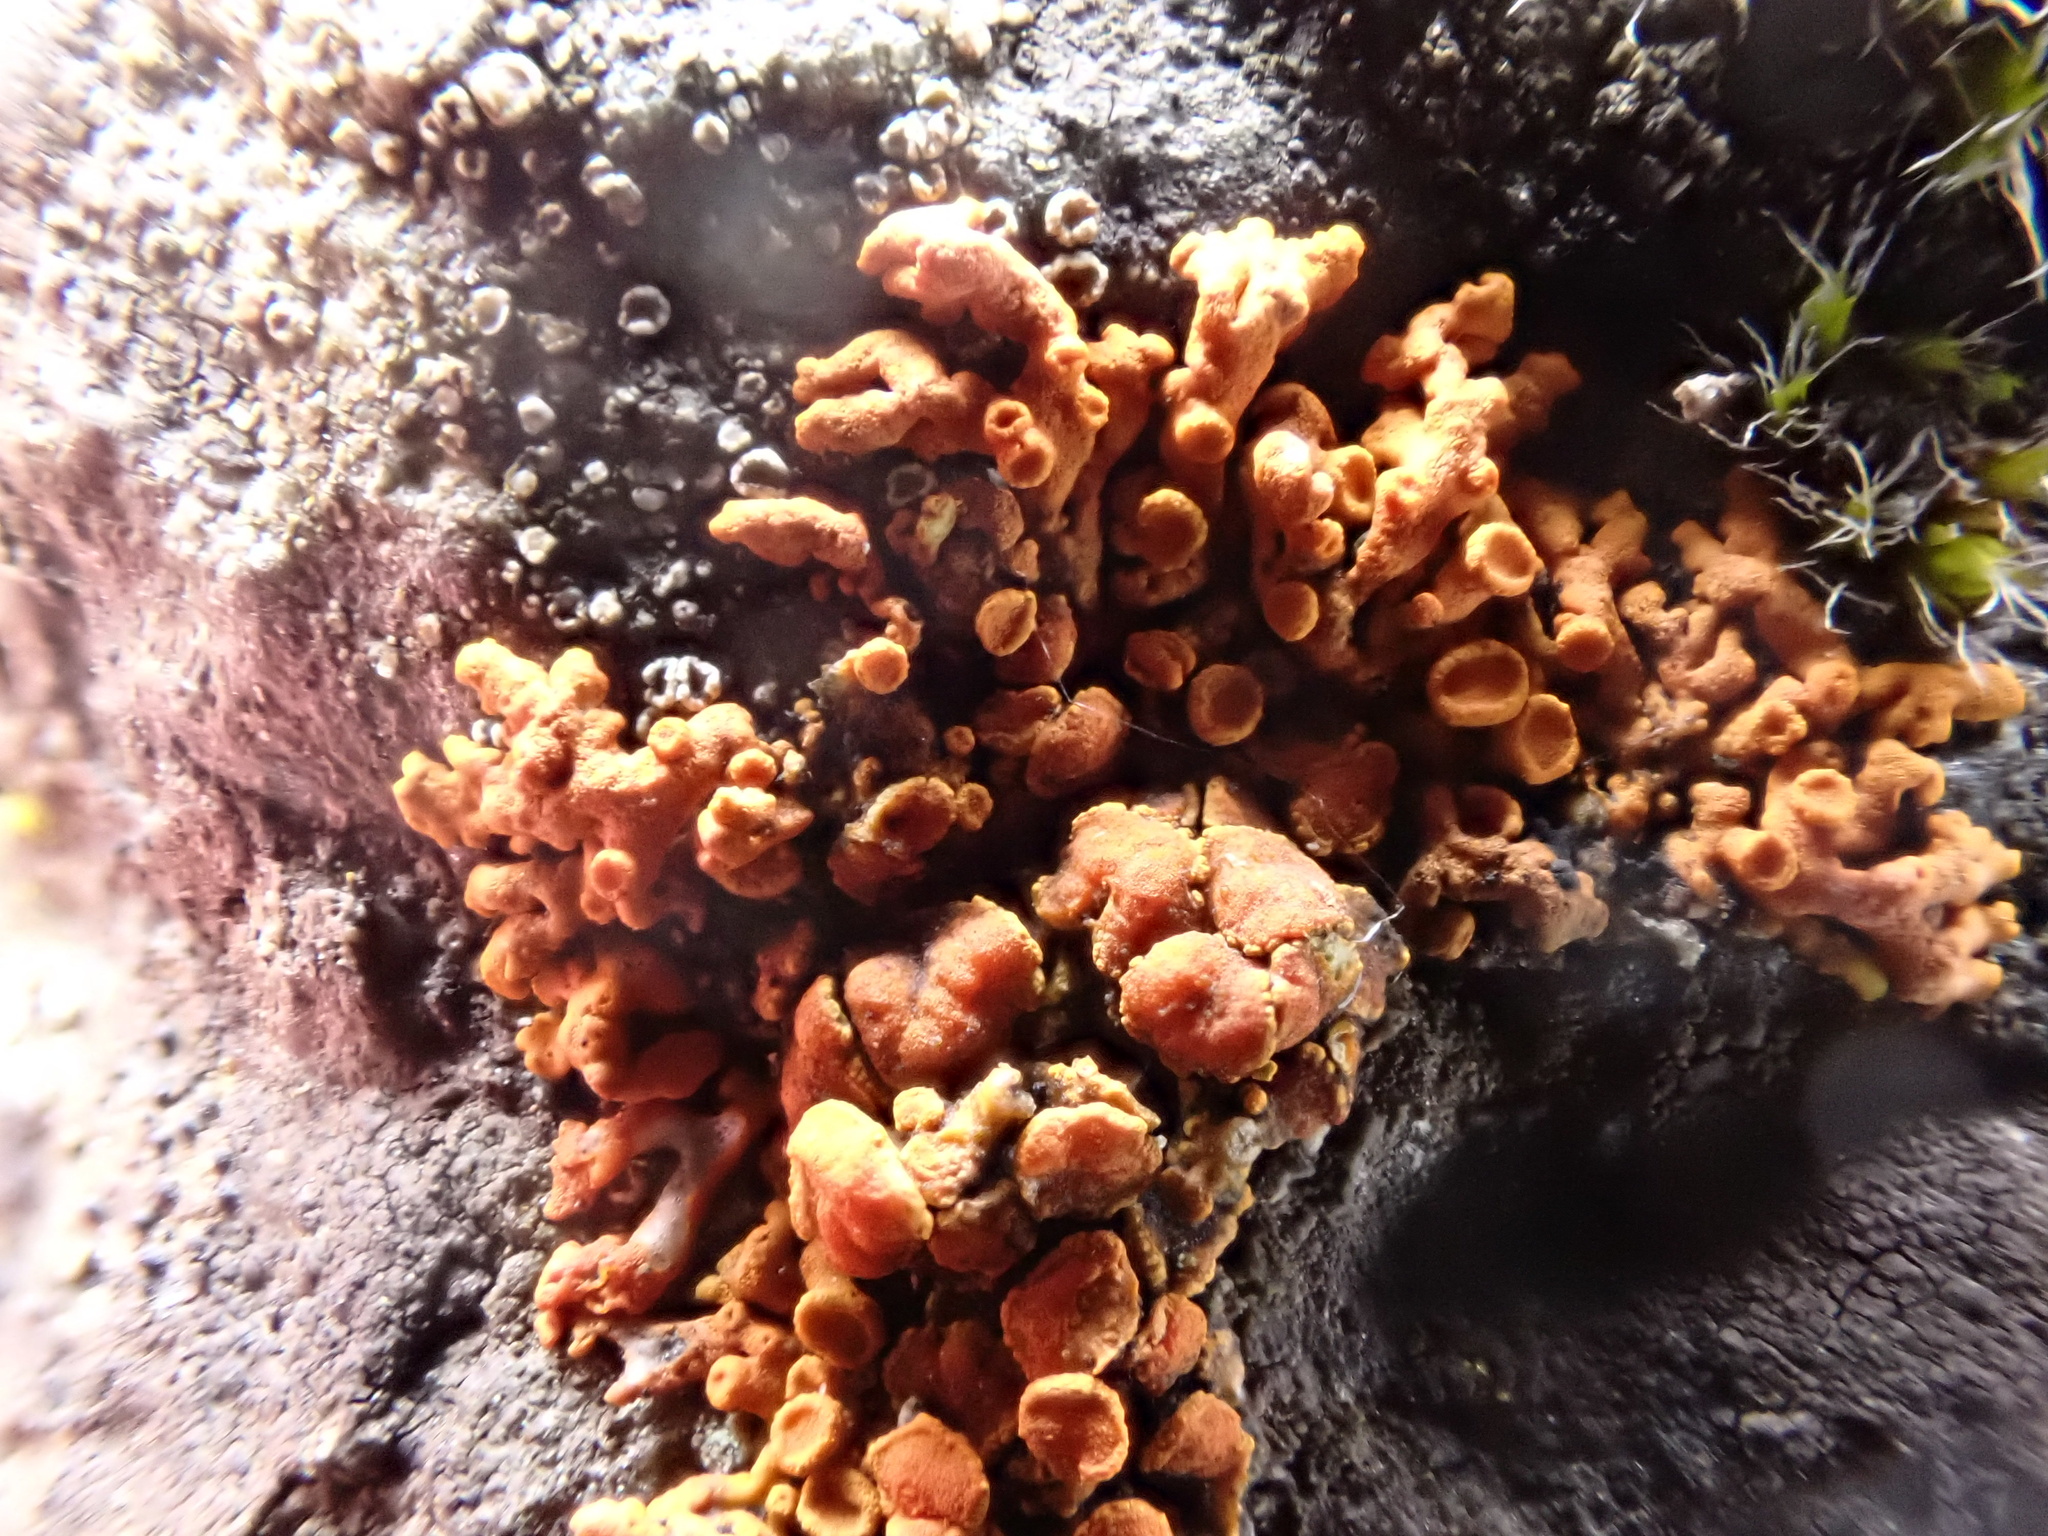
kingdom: Fungi
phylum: Ascomycota
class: Lecanoromycetes
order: Teloschistales
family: Teloschistaceae
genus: Xanthoria
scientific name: Xanthoria elegans
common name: Elegant sunburst lichen
